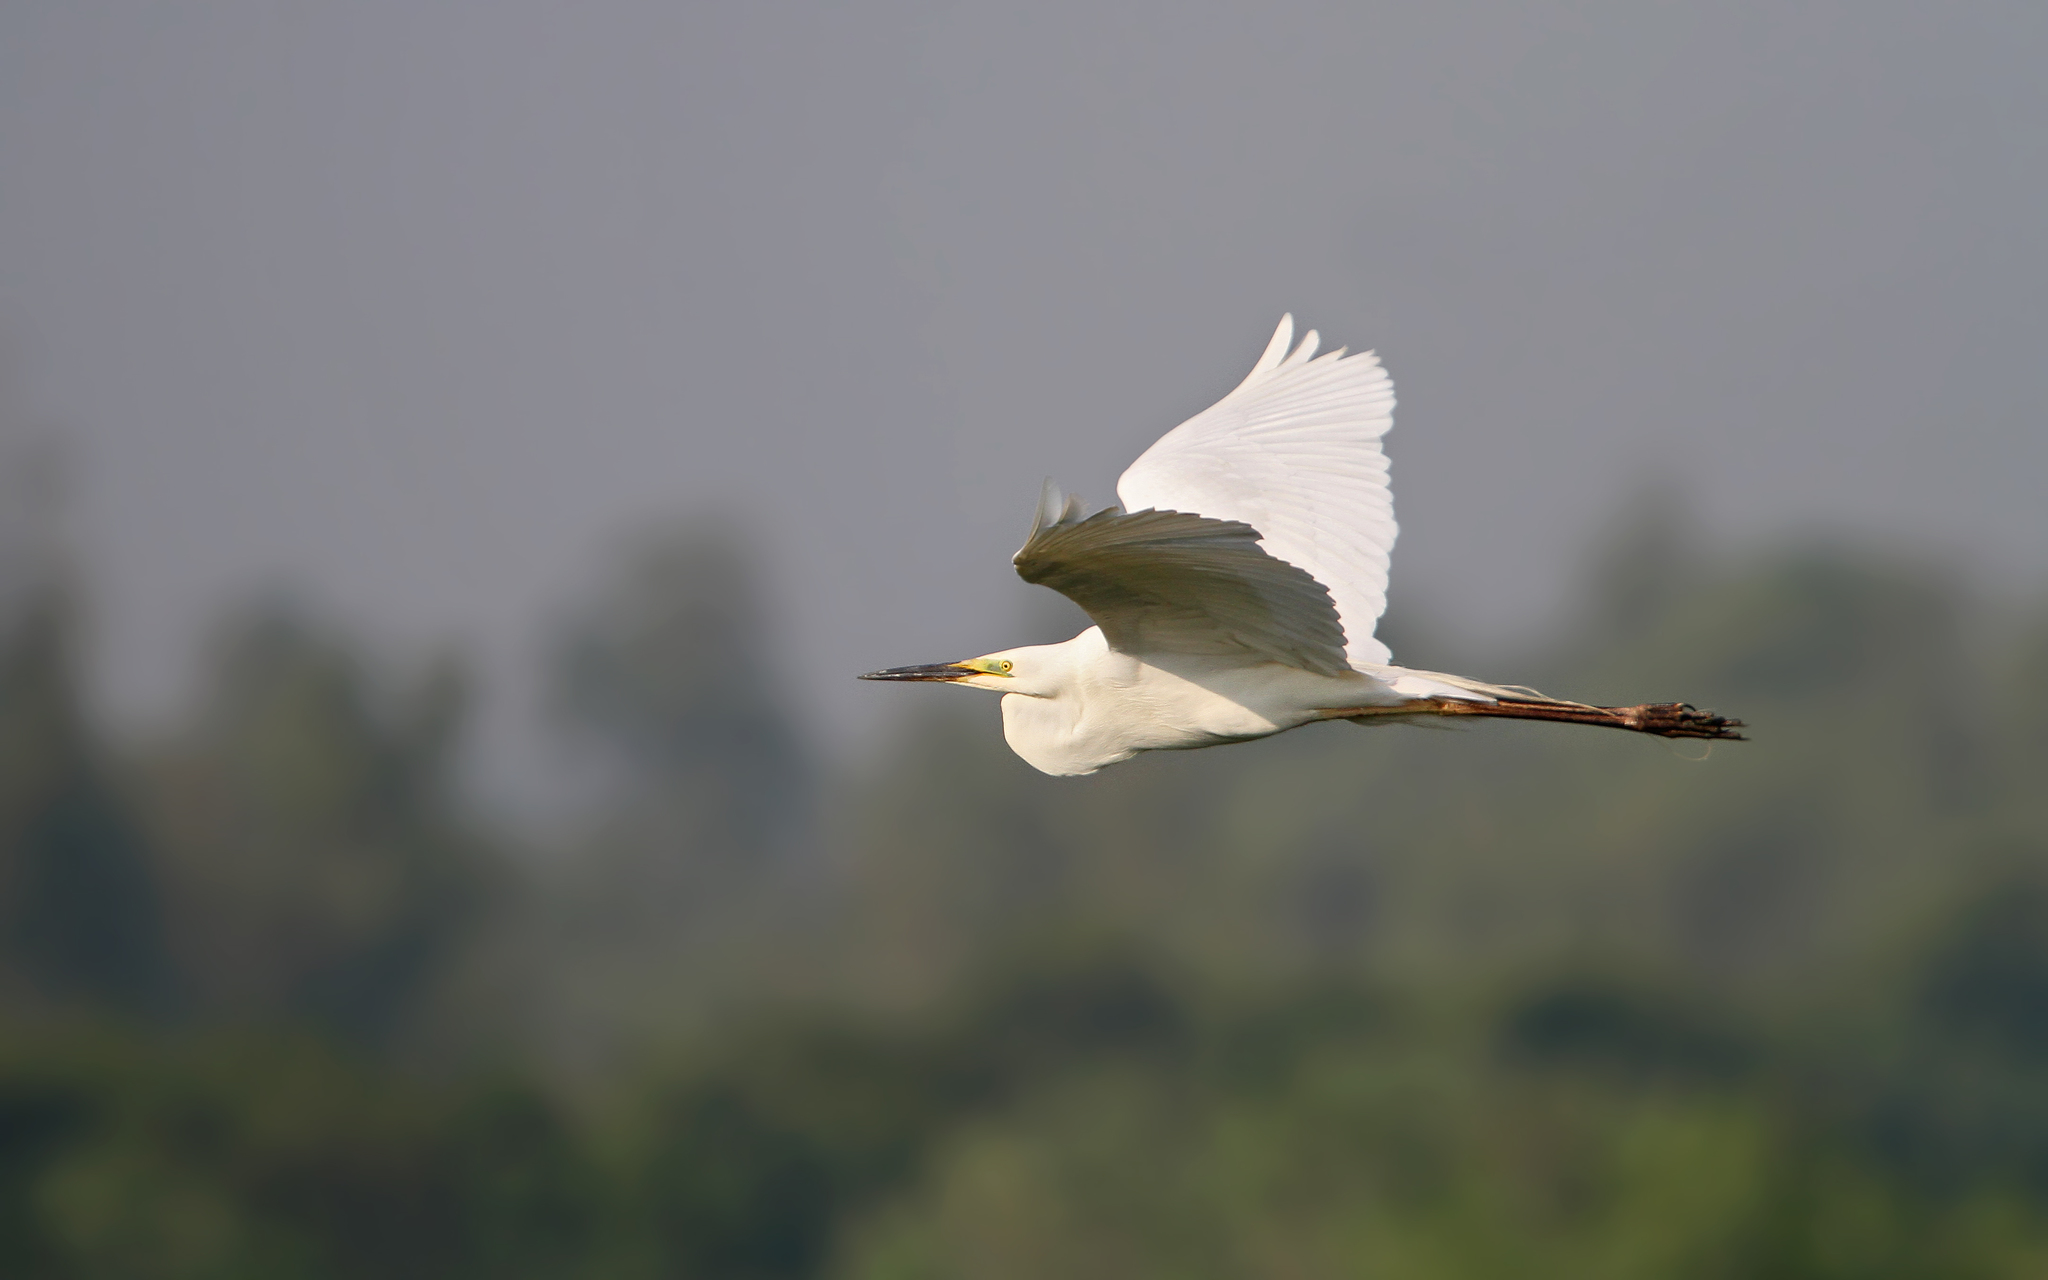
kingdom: Animalia
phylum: Chordata
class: Aves
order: Pelecaniformes
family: Ardeidae
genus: Ardea
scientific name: Ardea alba
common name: Great egret
